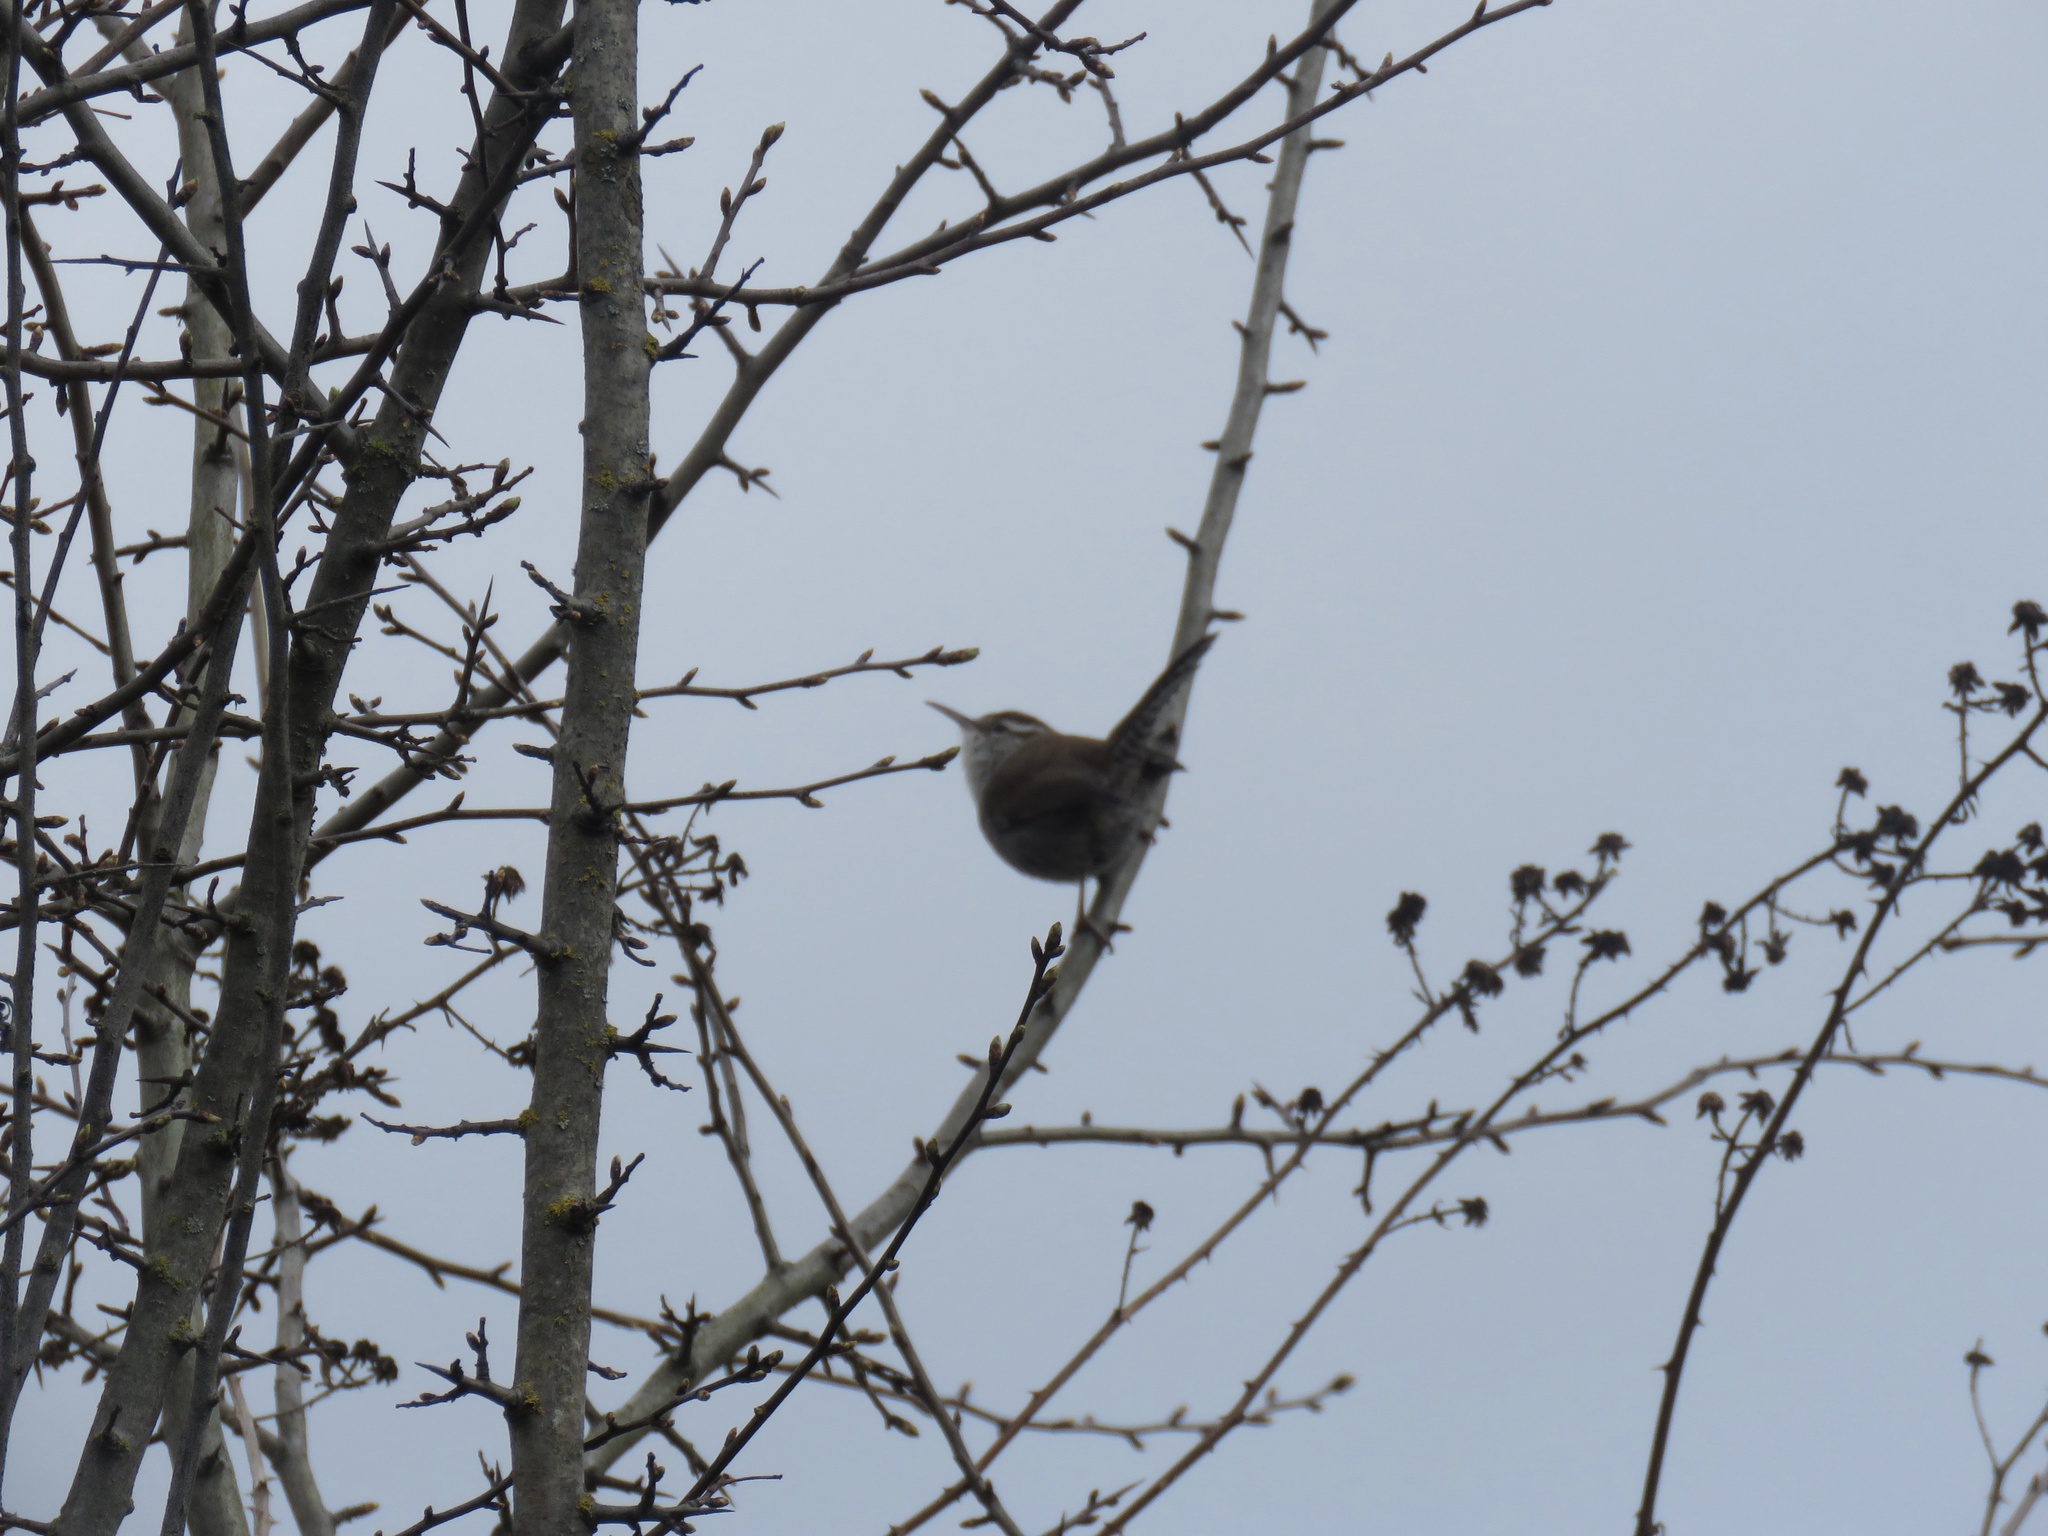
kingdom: Animalia
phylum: Chordata
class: Aves
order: Passeriformes
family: Troglodytidae
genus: Thryomanes
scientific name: Thryomanes bewickii
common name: Bewick's wren
